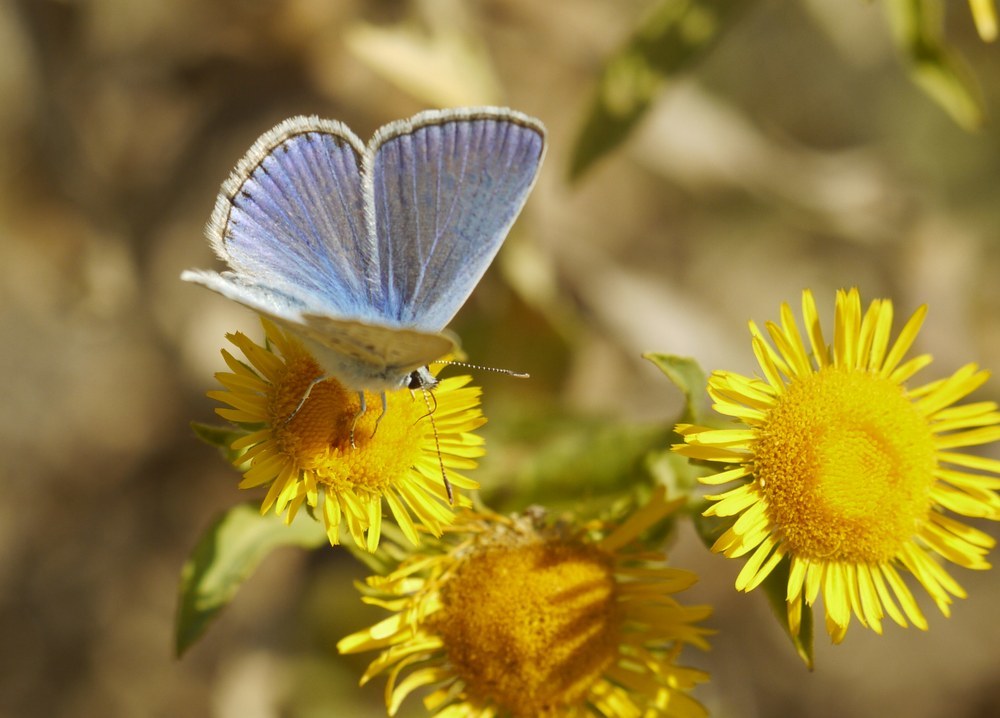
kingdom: Animalia
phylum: Arthropoda
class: Insecta
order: Lepidoptera
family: Lycaenidae
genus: Polyommatus
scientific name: Polyommatus icarus
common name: Common blue
